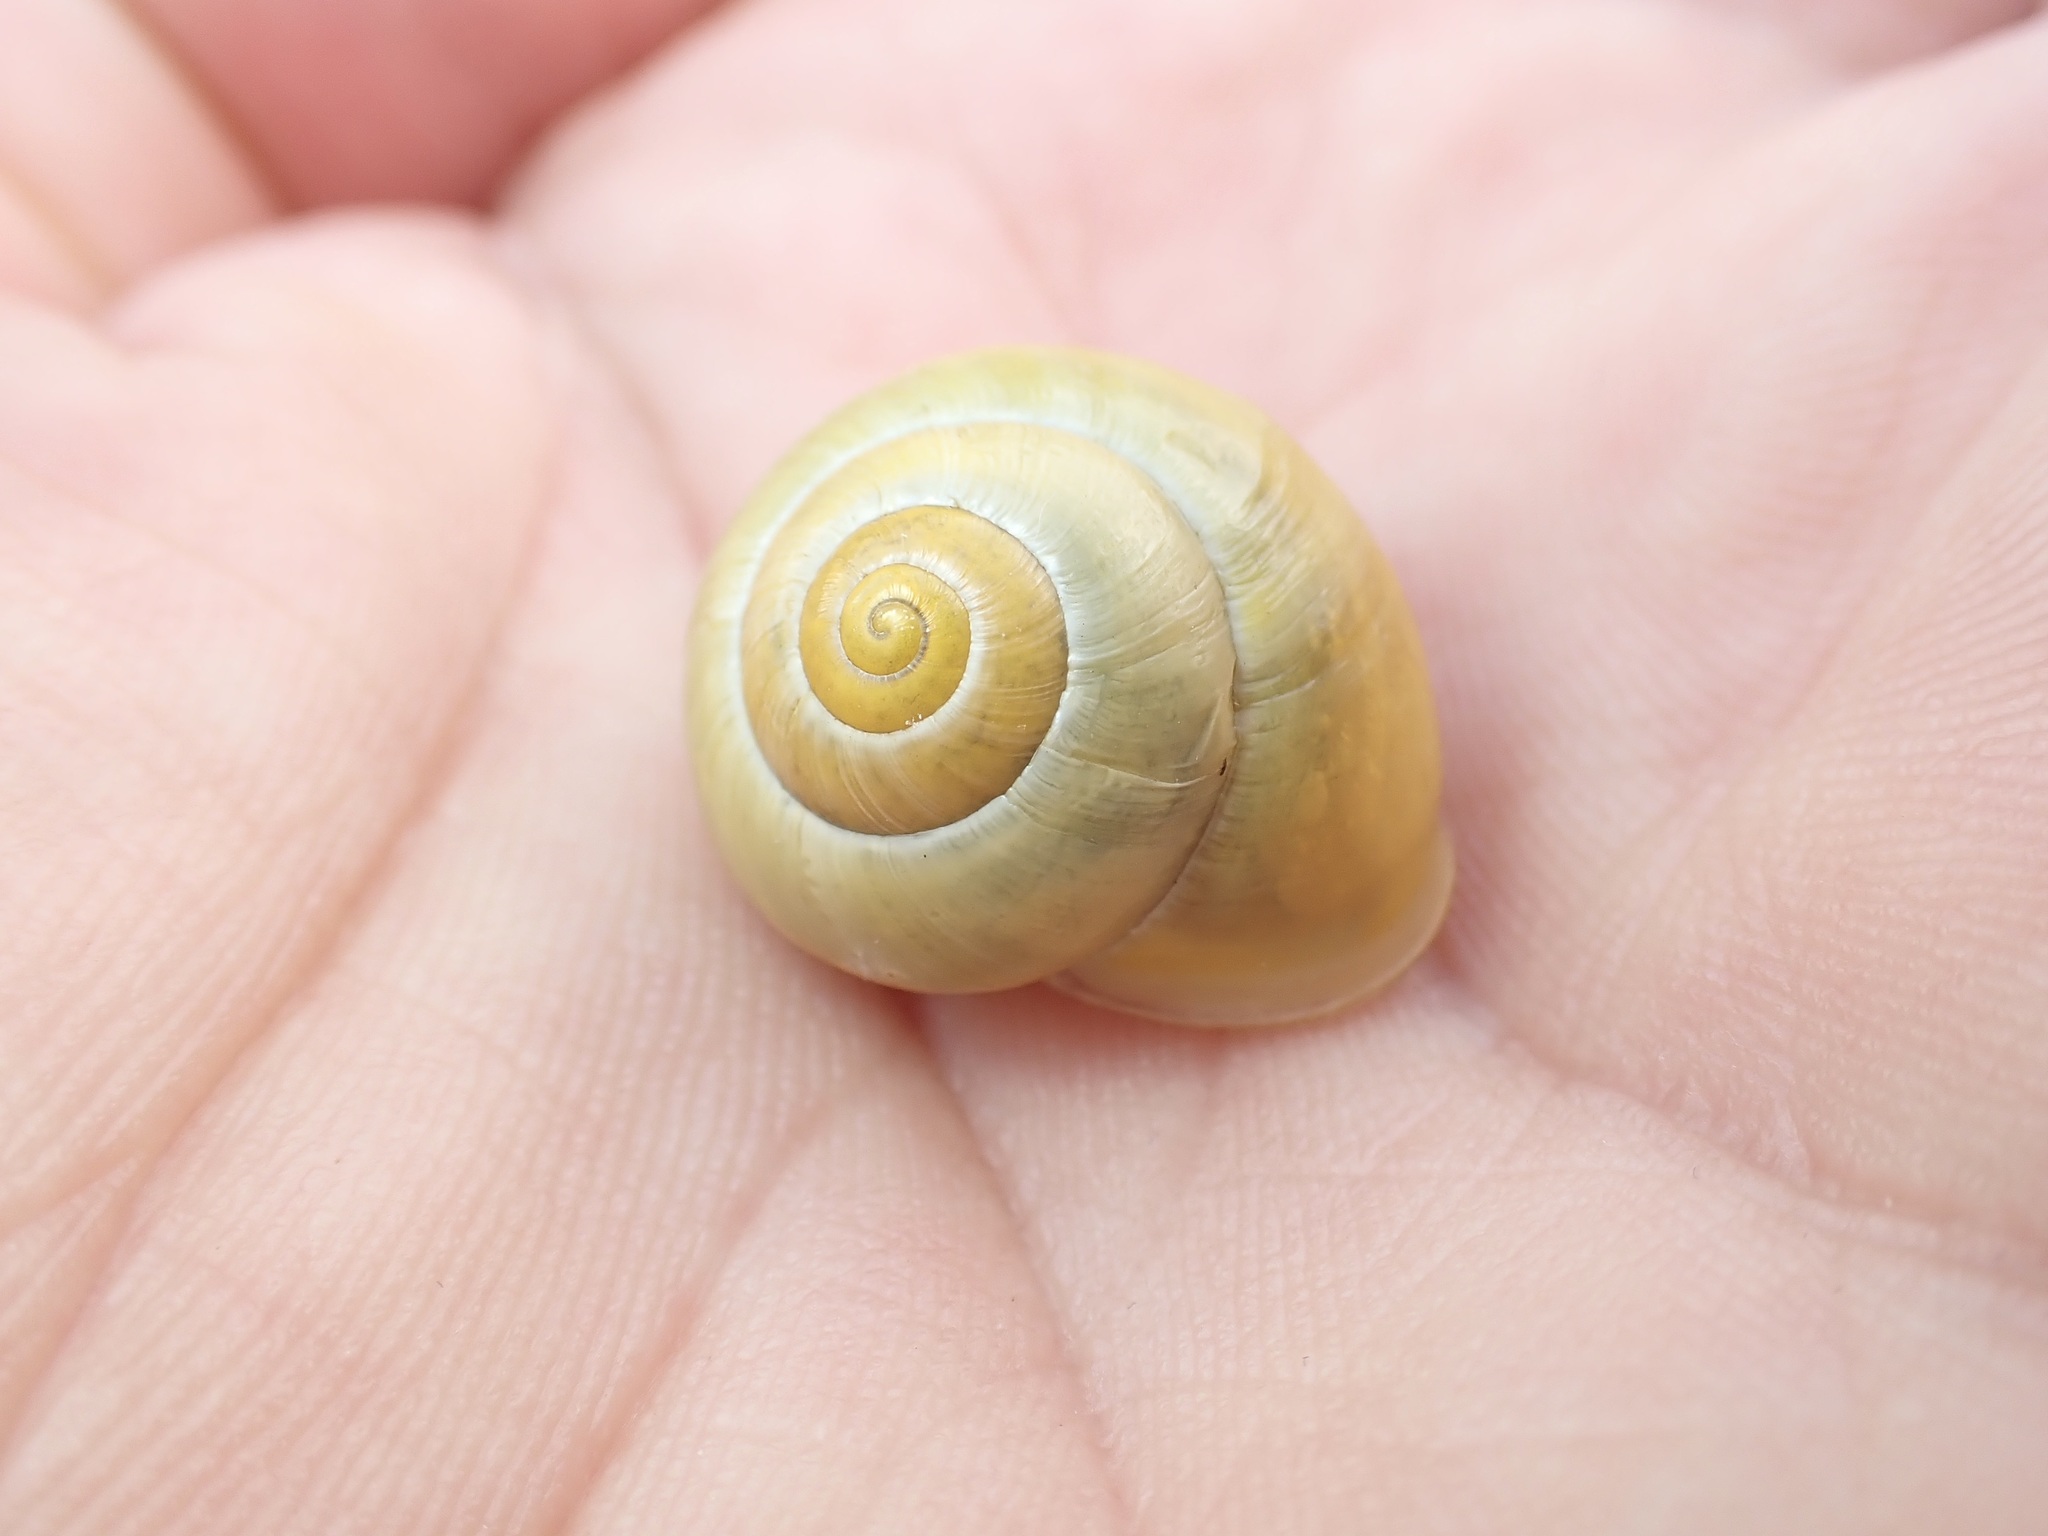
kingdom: Animalia
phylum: Mollusca
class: Gastropoda
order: Stylommatophora
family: Helicidae
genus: Cepaea
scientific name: Cepaea hortensis
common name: White-lip gardensnail
